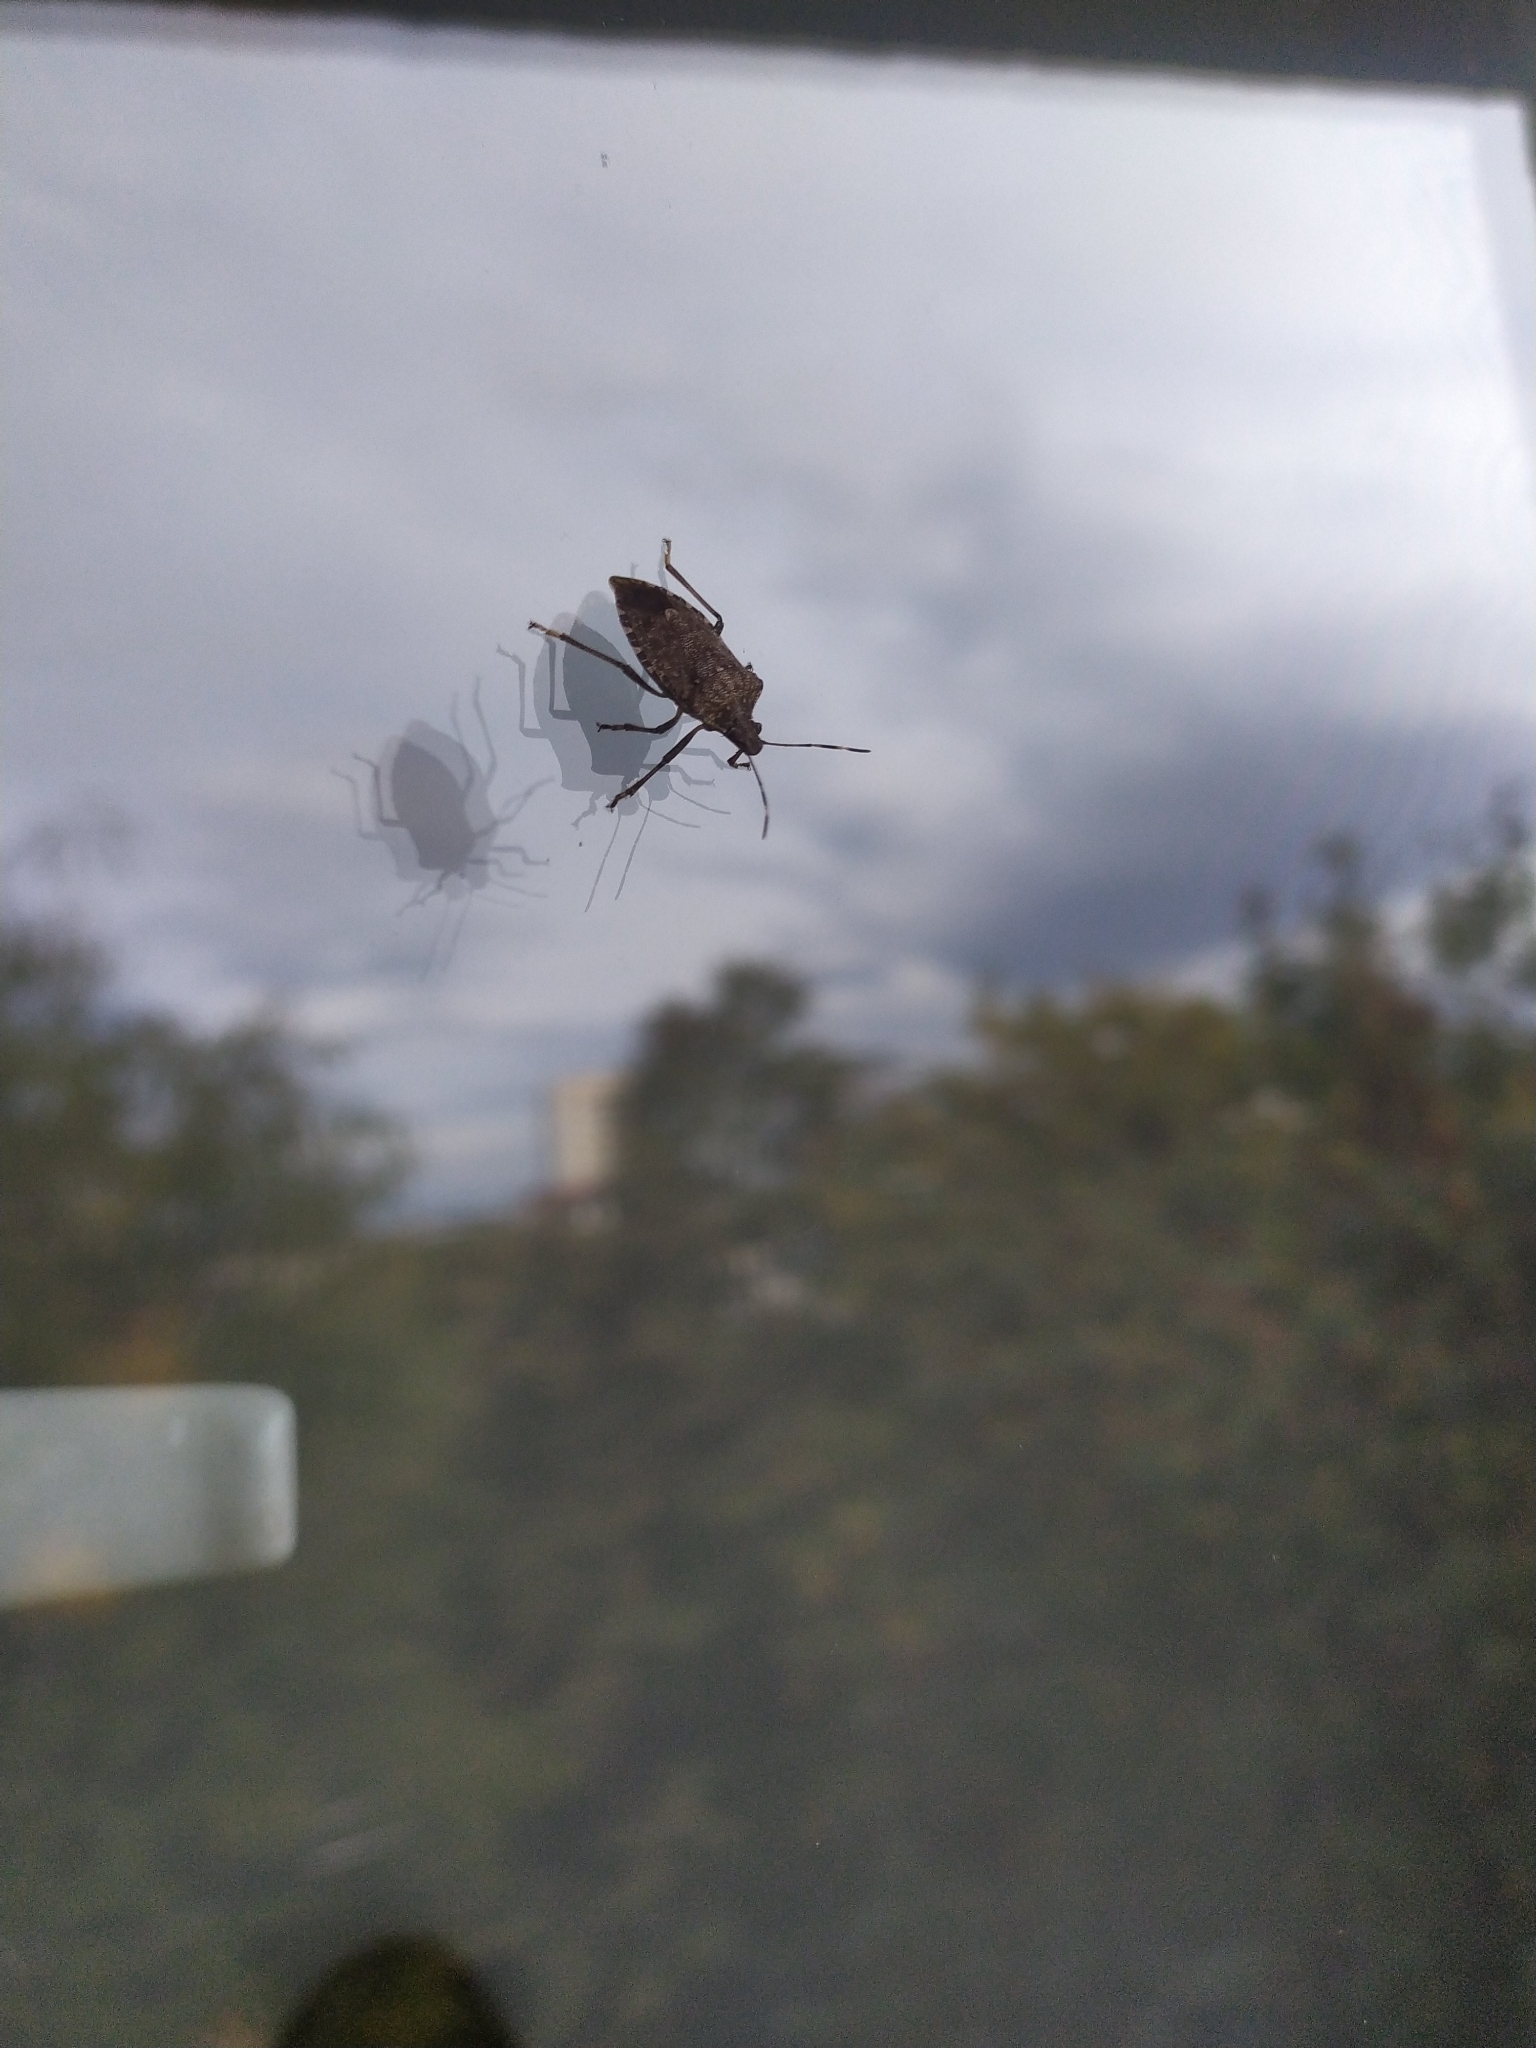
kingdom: Animalia
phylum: Arthropoda
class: Insecta
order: Hemiptera
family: Pentatomidae
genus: Halyomorpha
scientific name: Halyomorpha halys
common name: Brown marmorated stink bug
